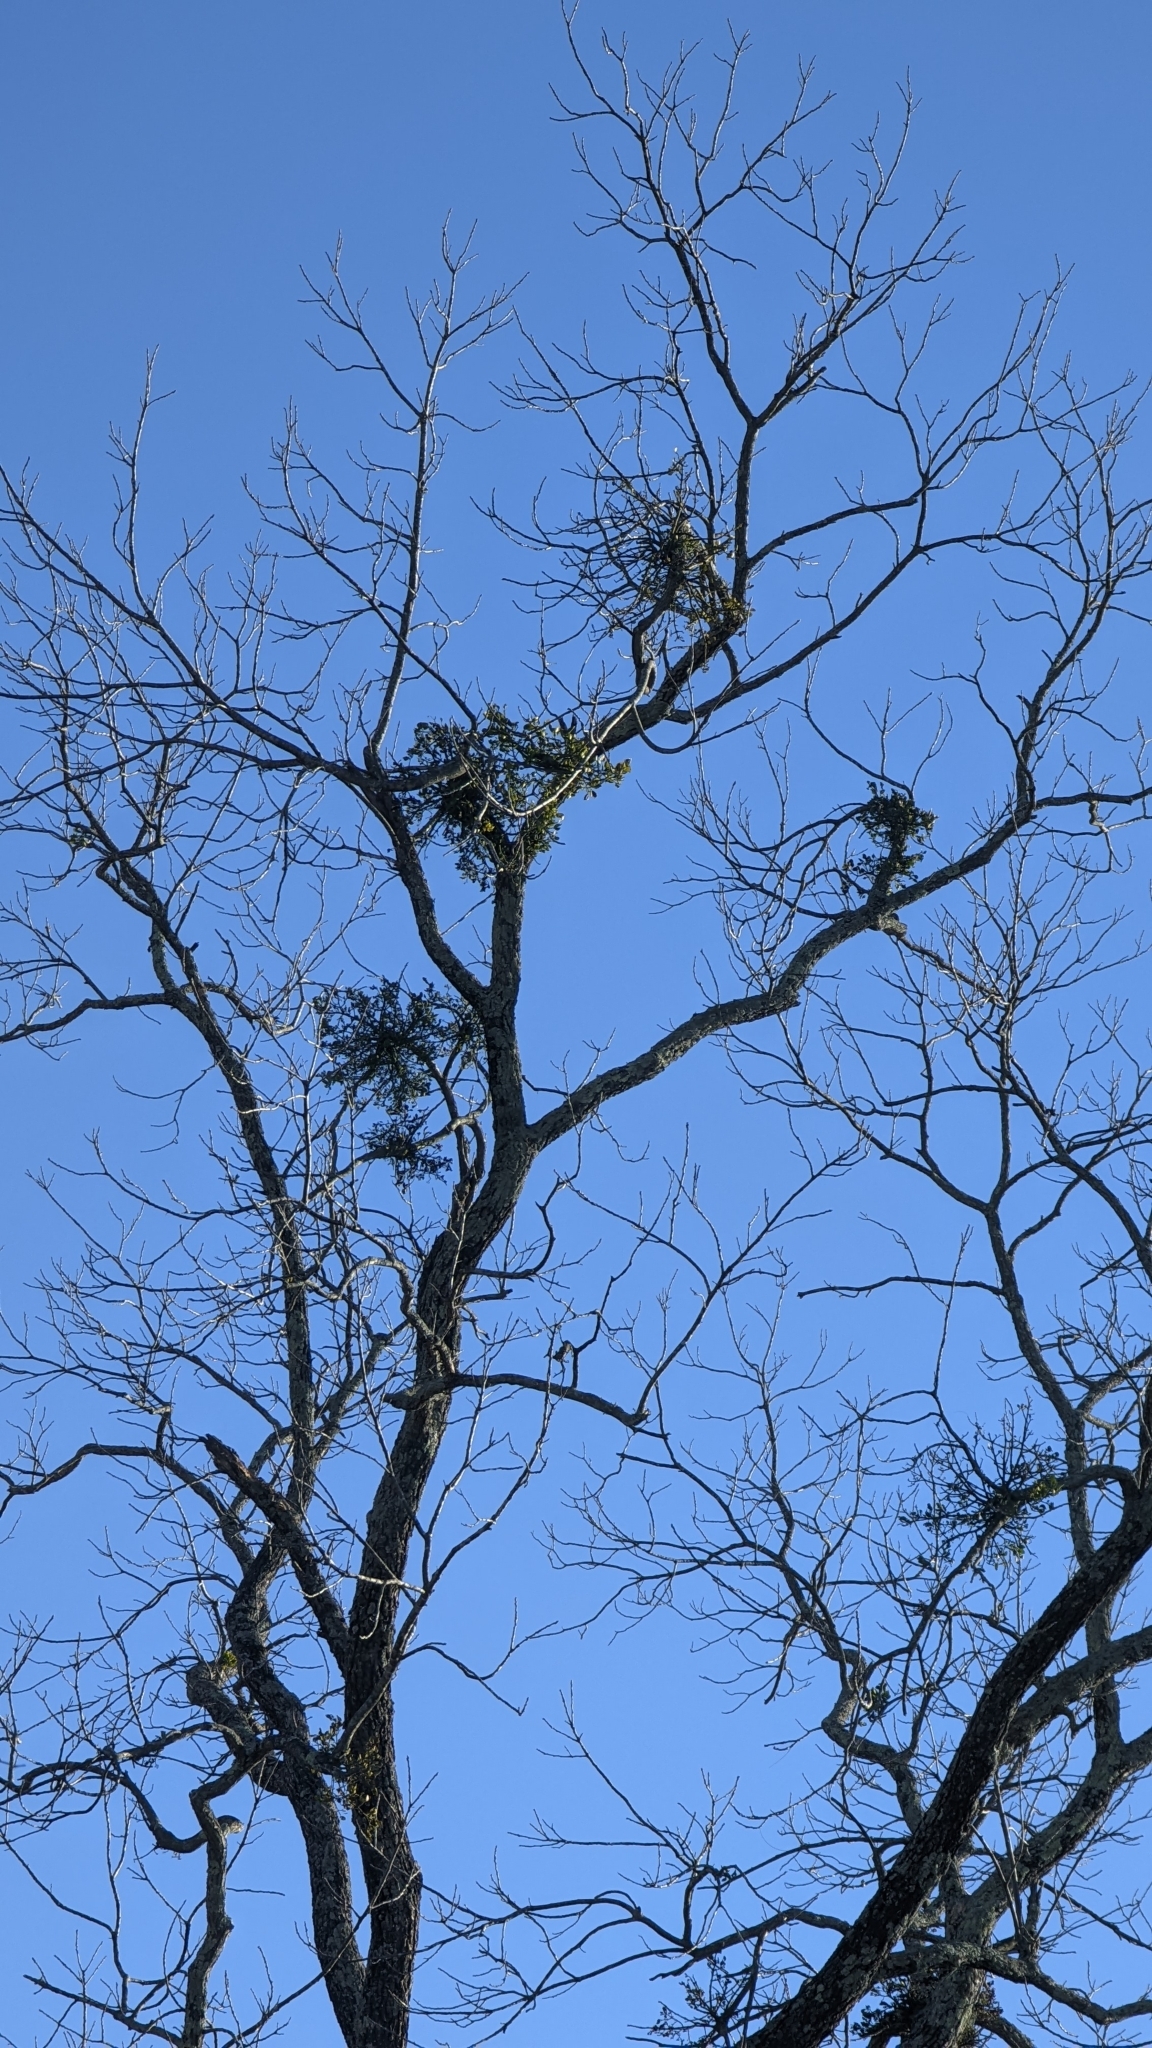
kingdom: Plantae
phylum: Tracheophyta
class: Magnoliopsida
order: Santalales
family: Viscaceae
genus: Phoradendron
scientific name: Phoradendron leucarpum
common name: Pacific mistletoe
